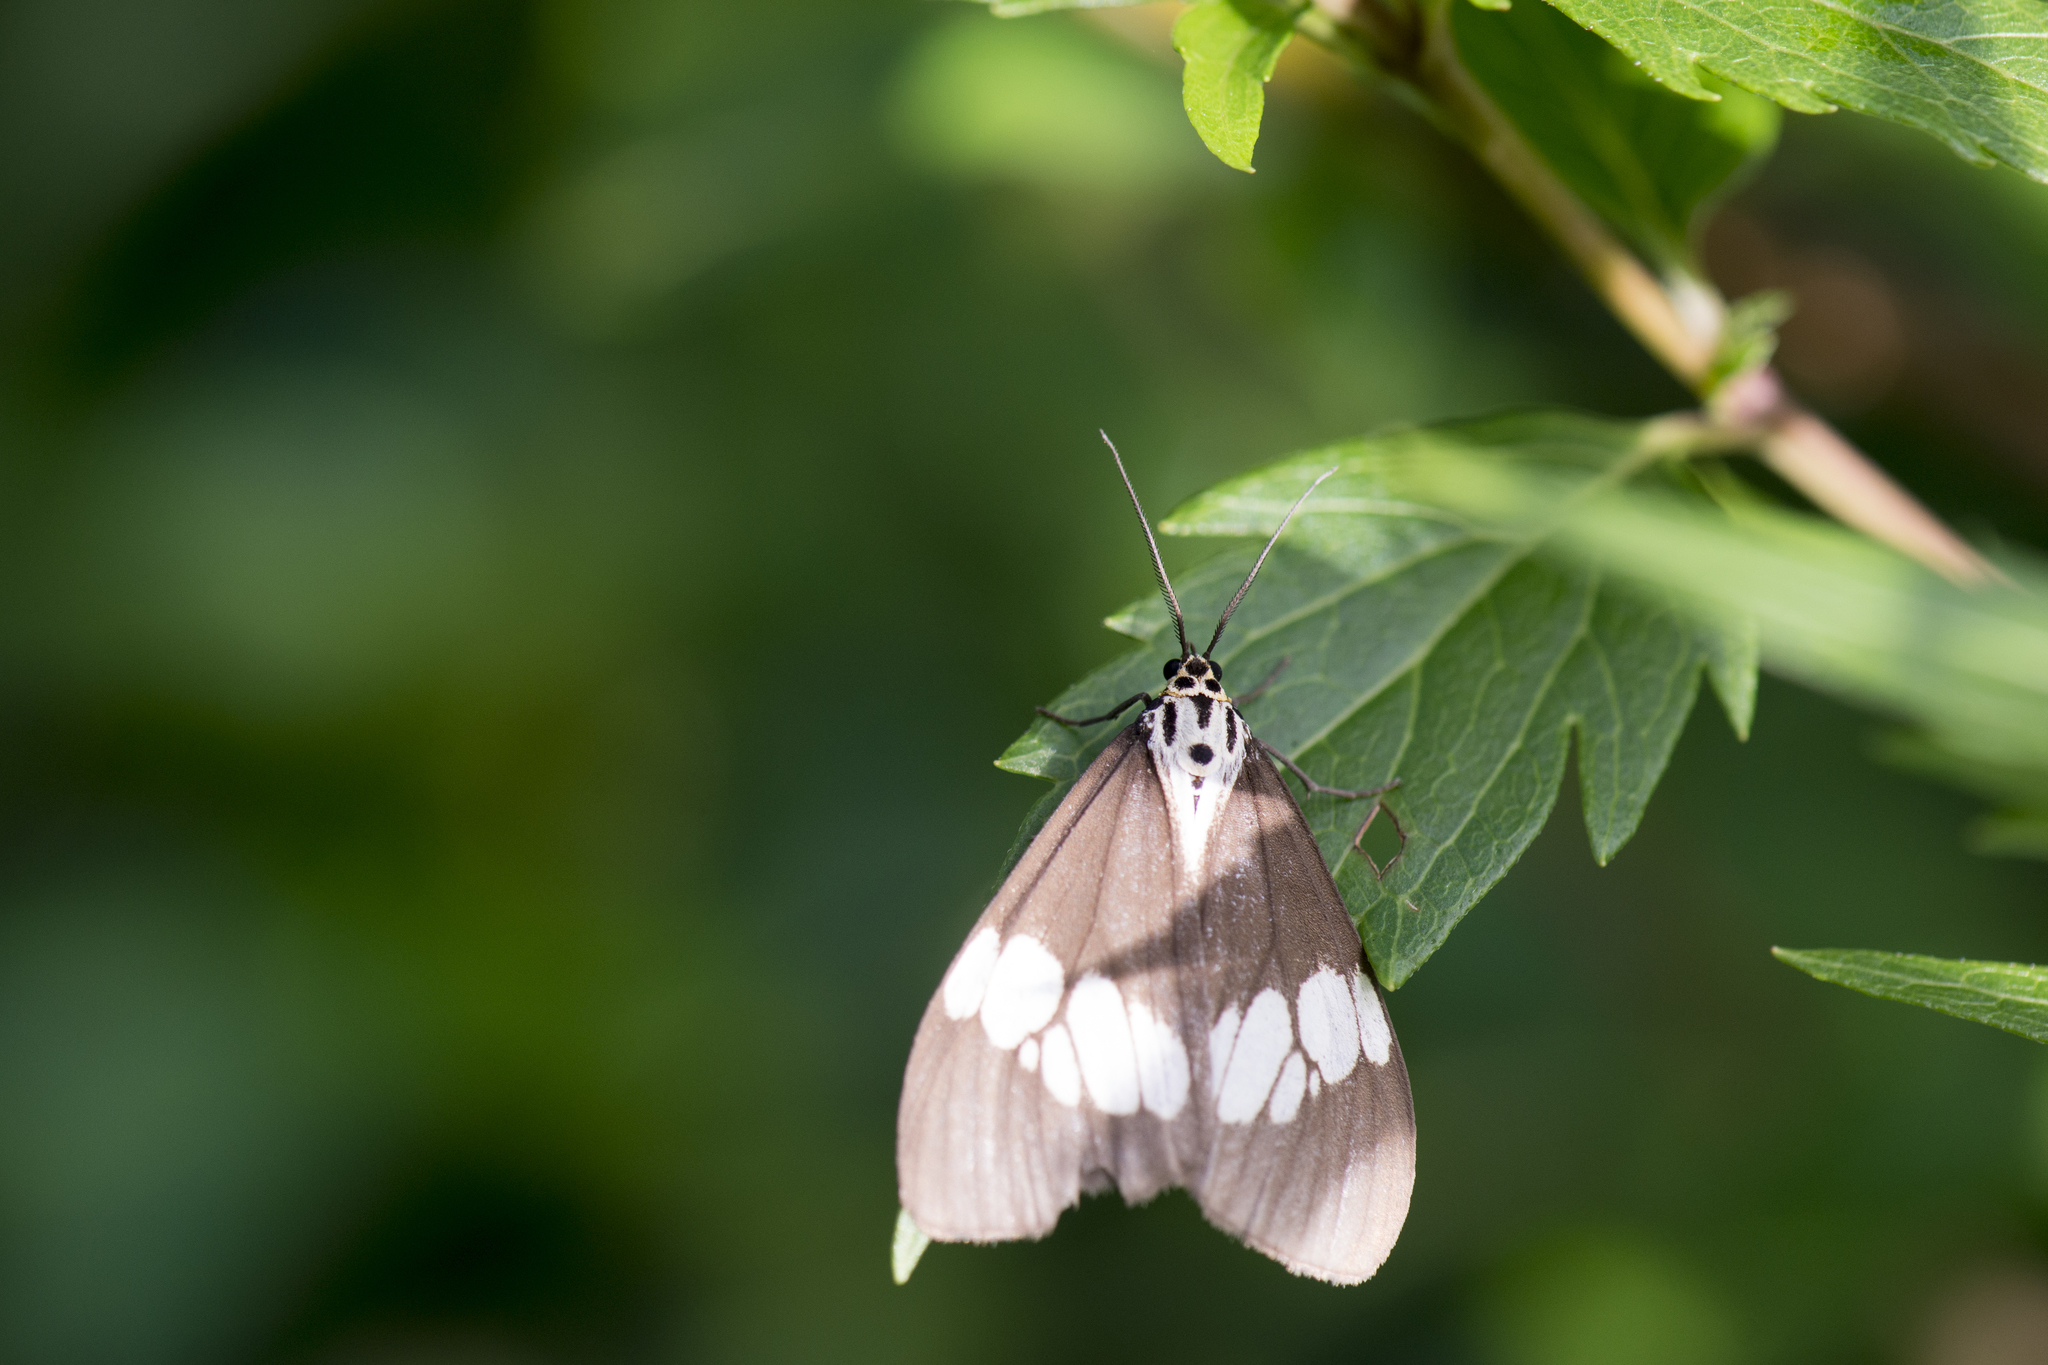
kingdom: Animalia
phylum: Arthropoda
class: Insecta
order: Lepidoptera
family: Erebidae
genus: Nyctemera
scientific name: Nyctemera lacticinia
